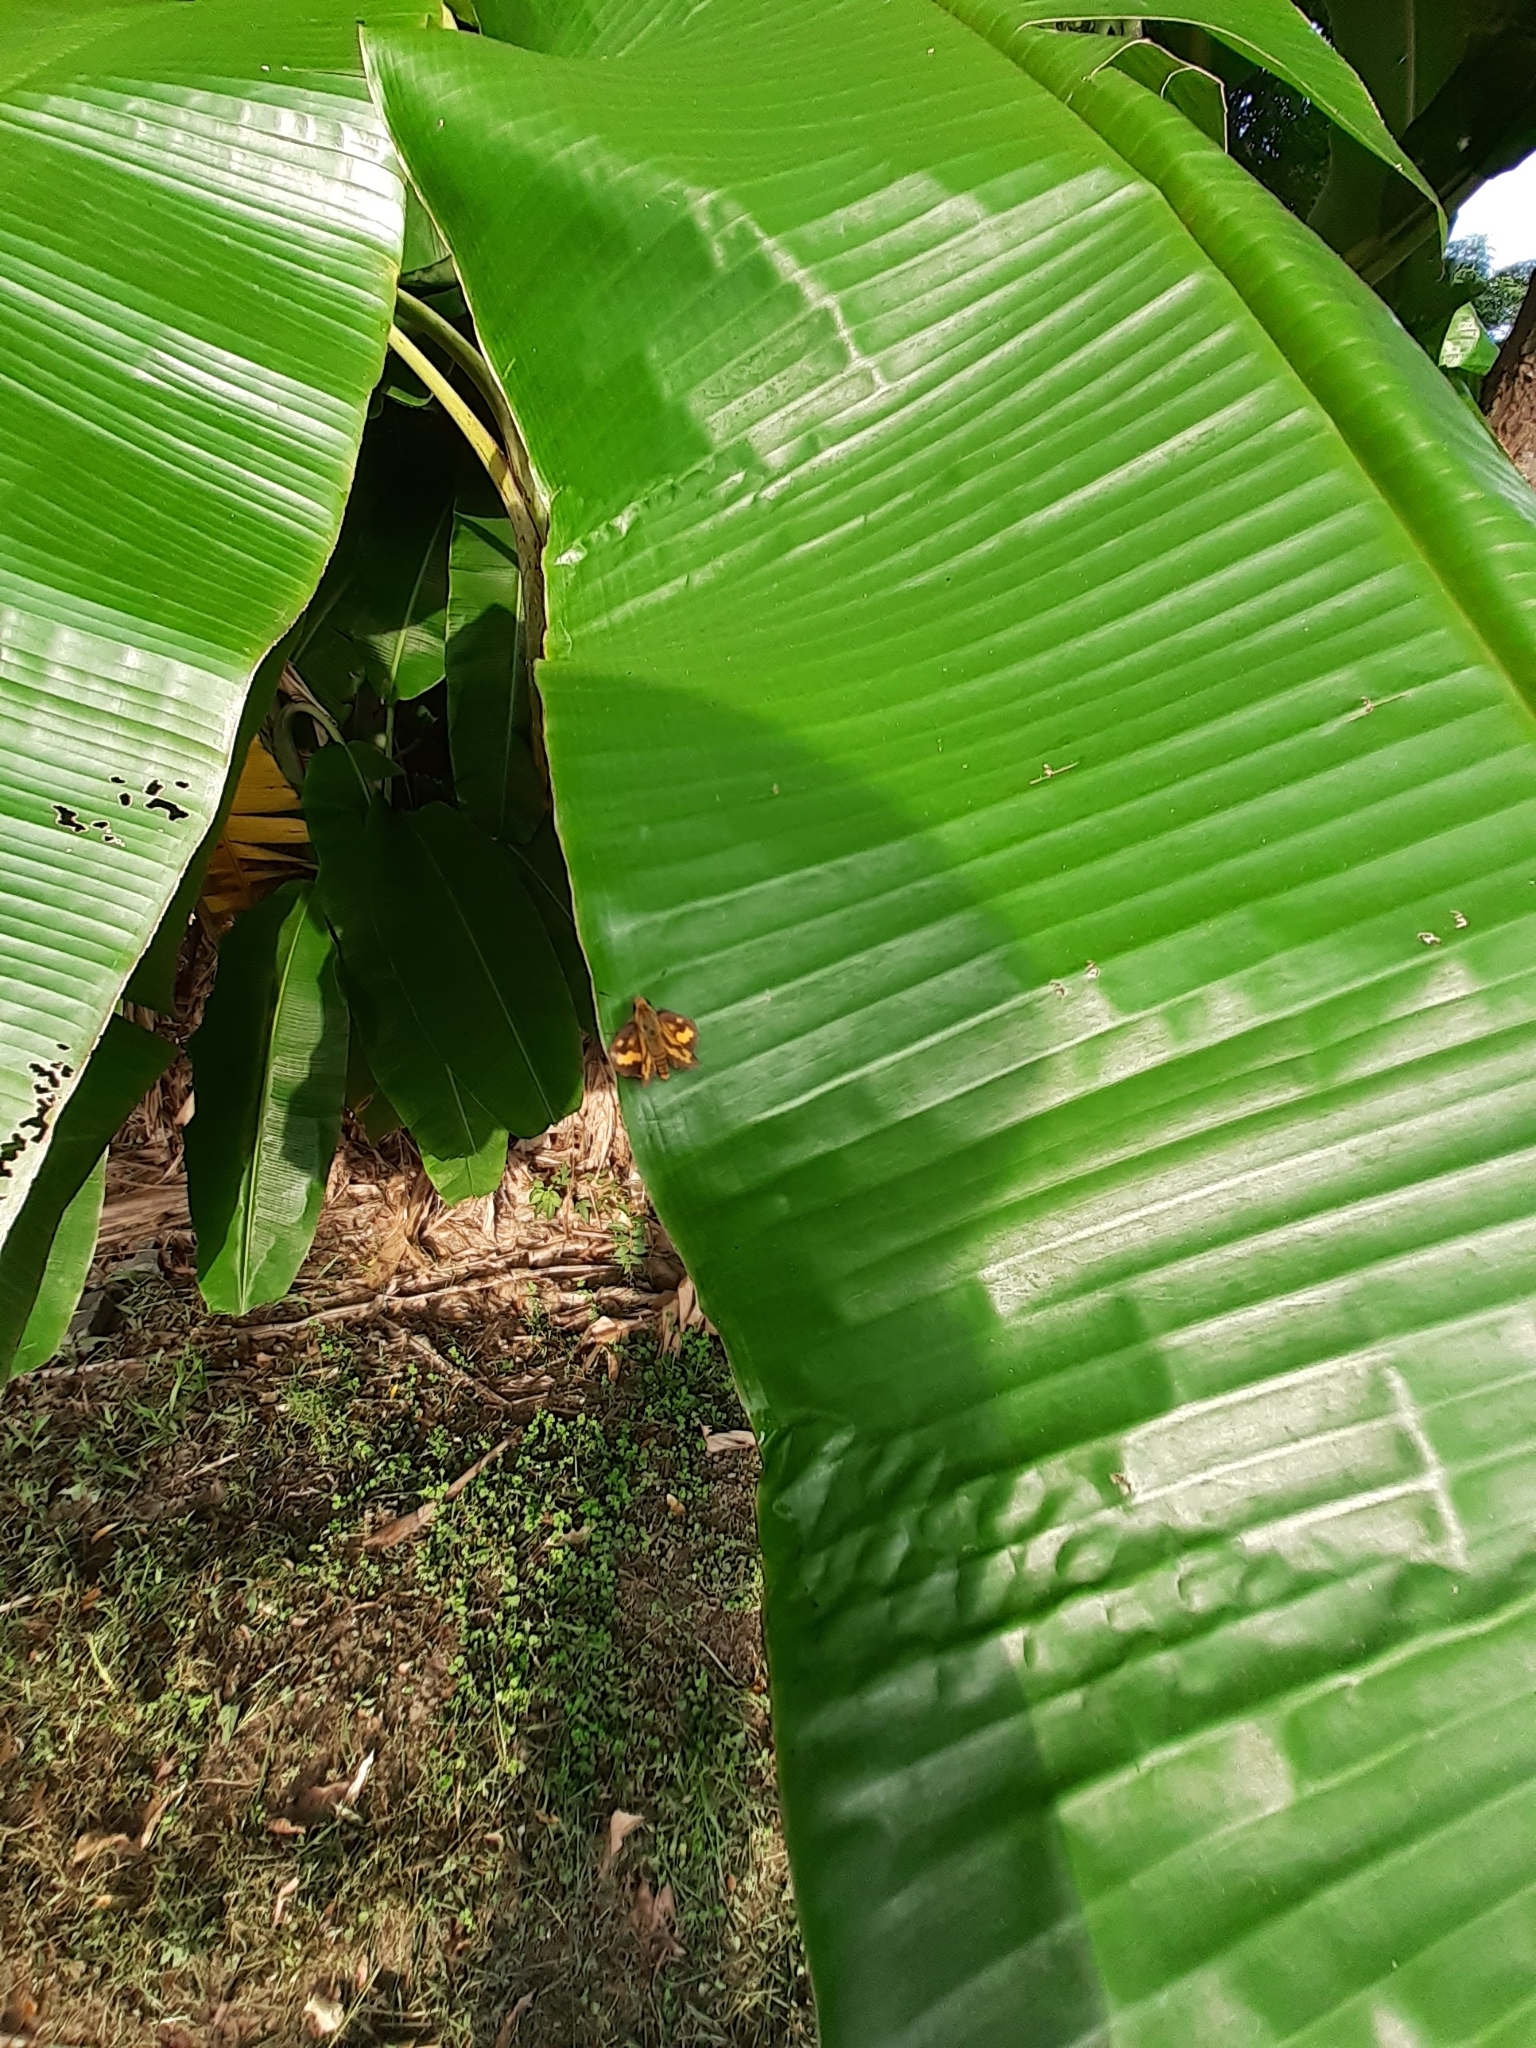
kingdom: Animalia
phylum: Arthropoda
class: Insecta
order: Lepidoptera
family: Hesperiidae
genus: Potanthus
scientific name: Potanthus confucius
